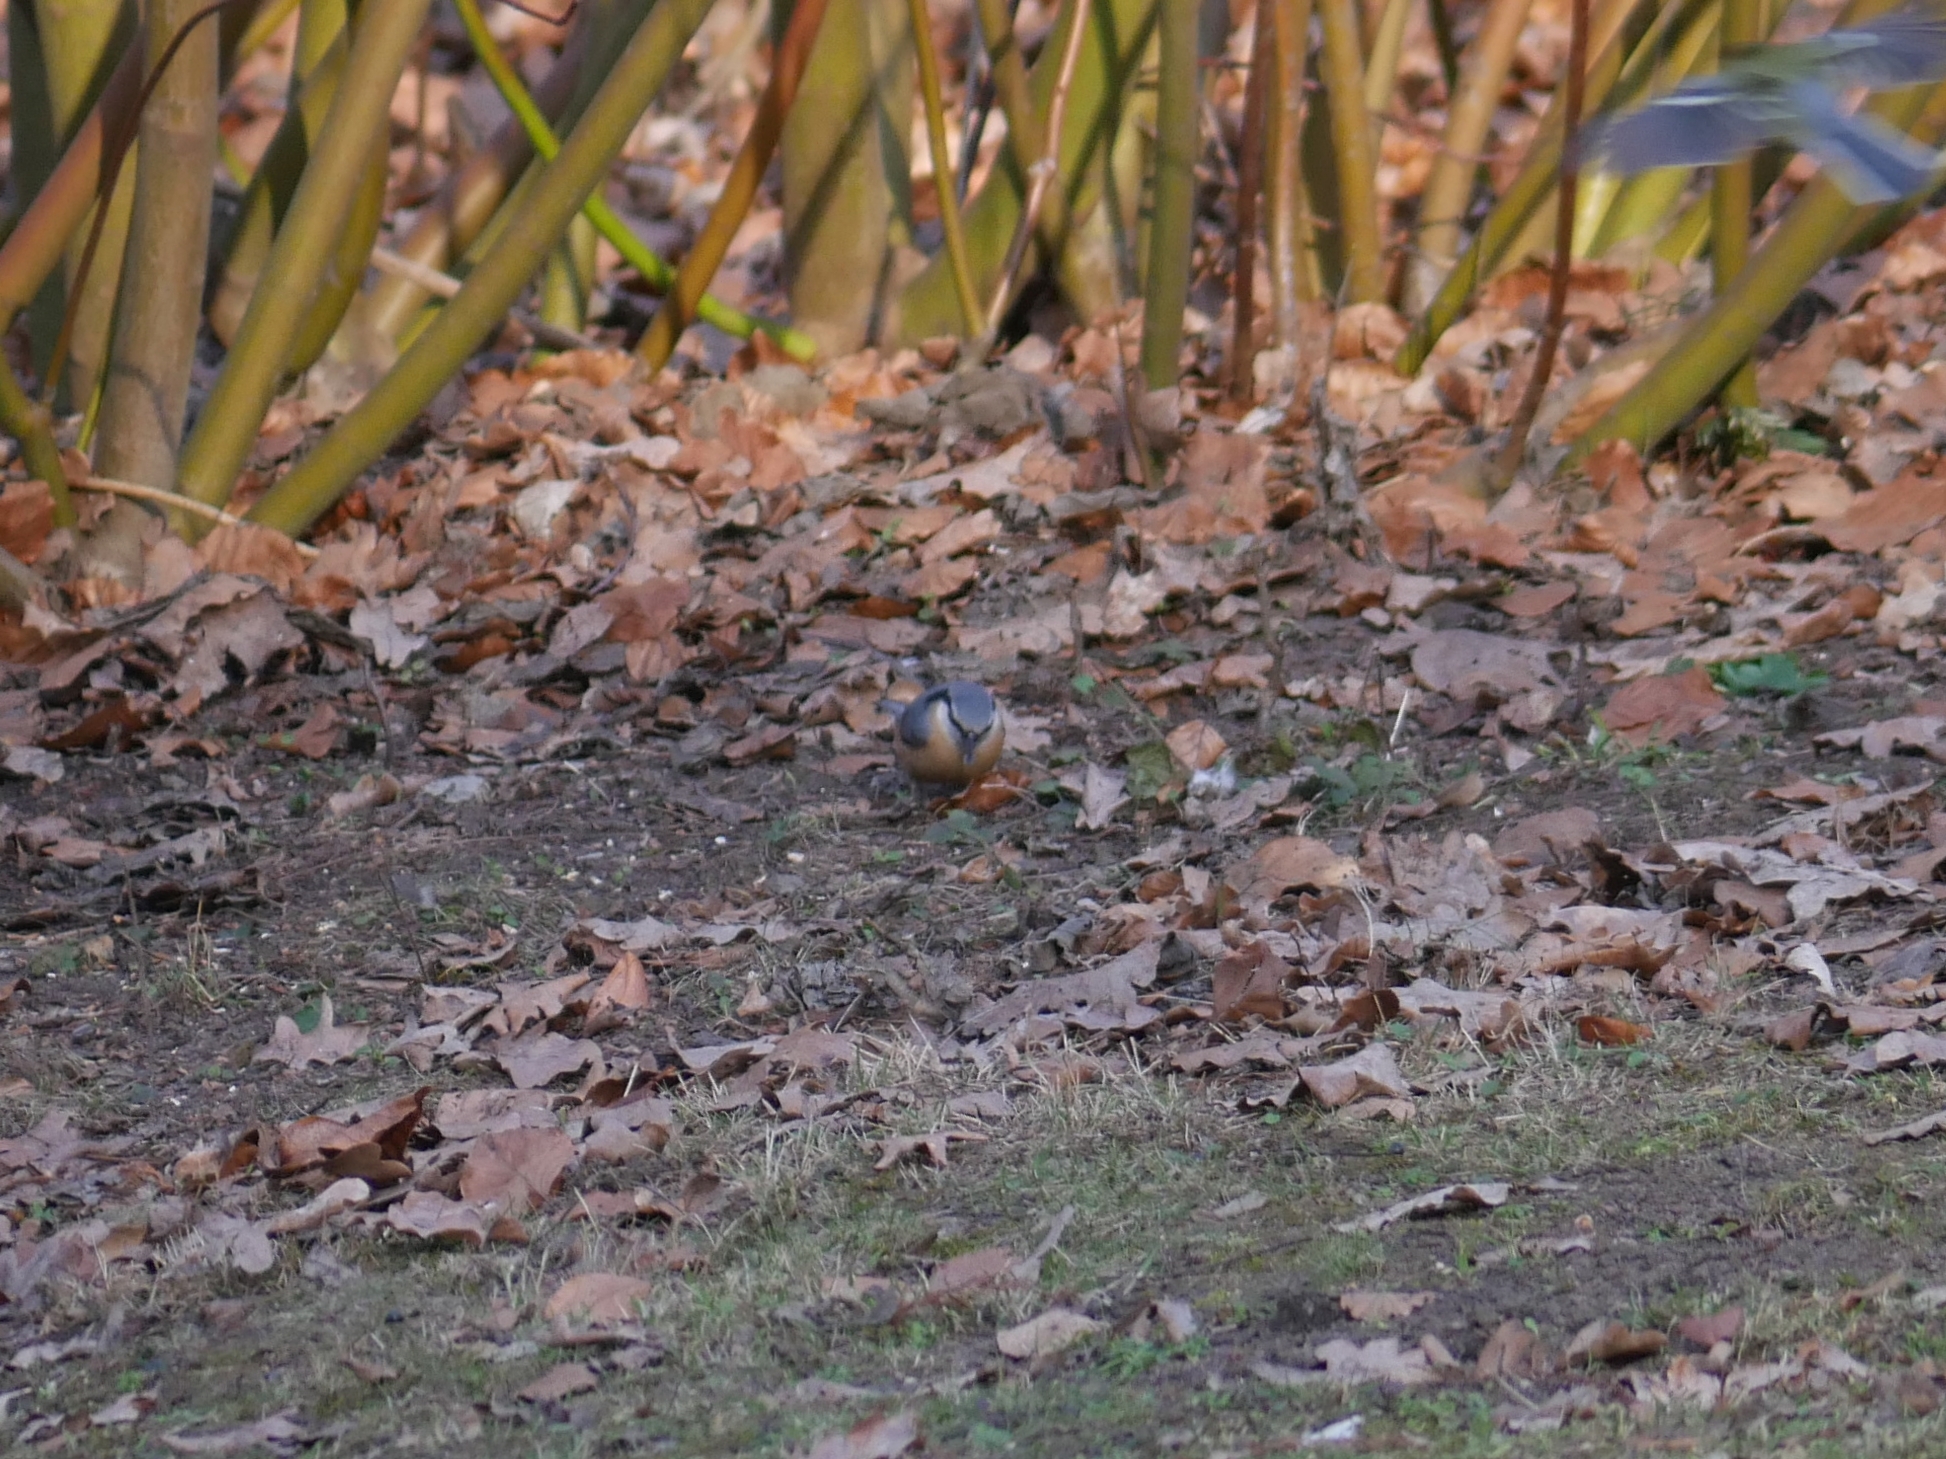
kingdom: Animalia
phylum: Chordata
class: Aves
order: Passeriformes
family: Sittidae
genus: Sitta
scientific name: Sitta europaea
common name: Eurasian nuthatch
